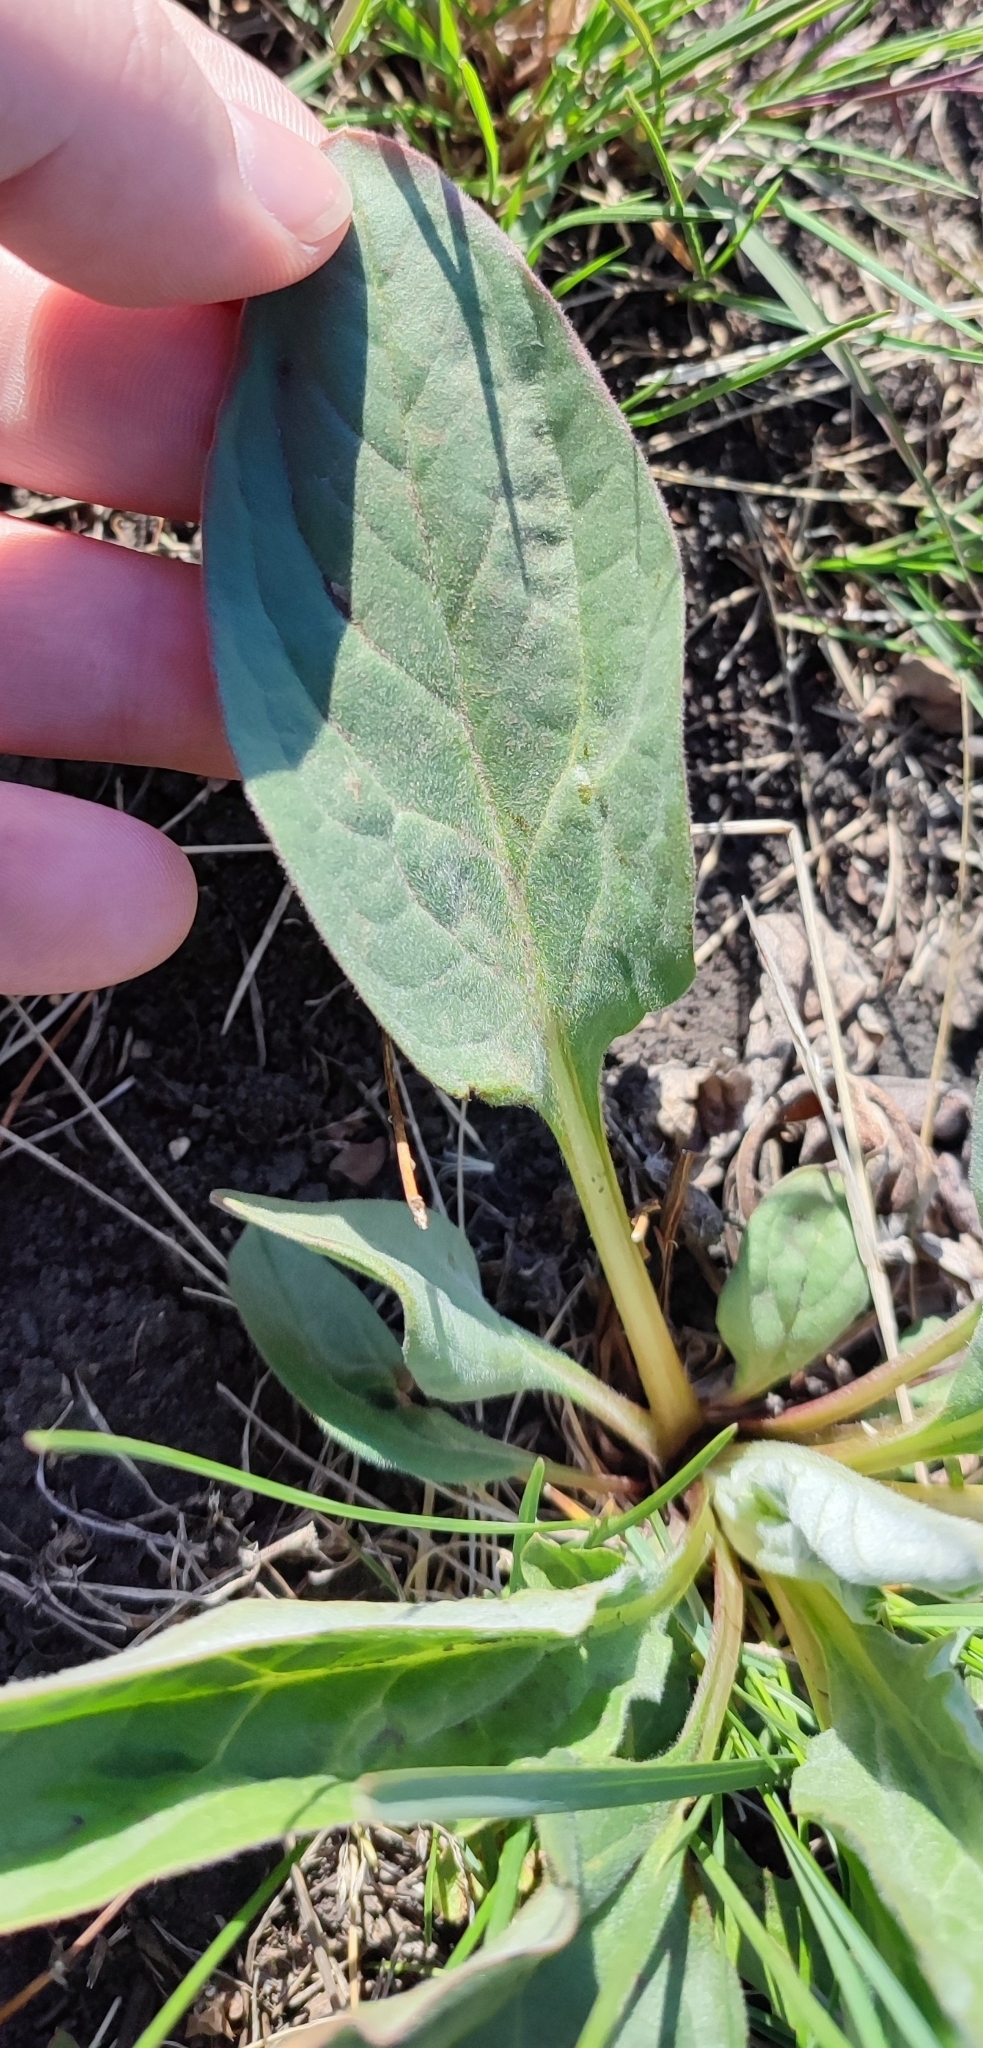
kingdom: Plantae
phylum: Tracheophyta
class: Magnoliopsida
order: Boraginales
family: Boraginaceae
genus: Cynoglossum
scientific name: Cynoglossum officinale
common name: Hound's-tongue
